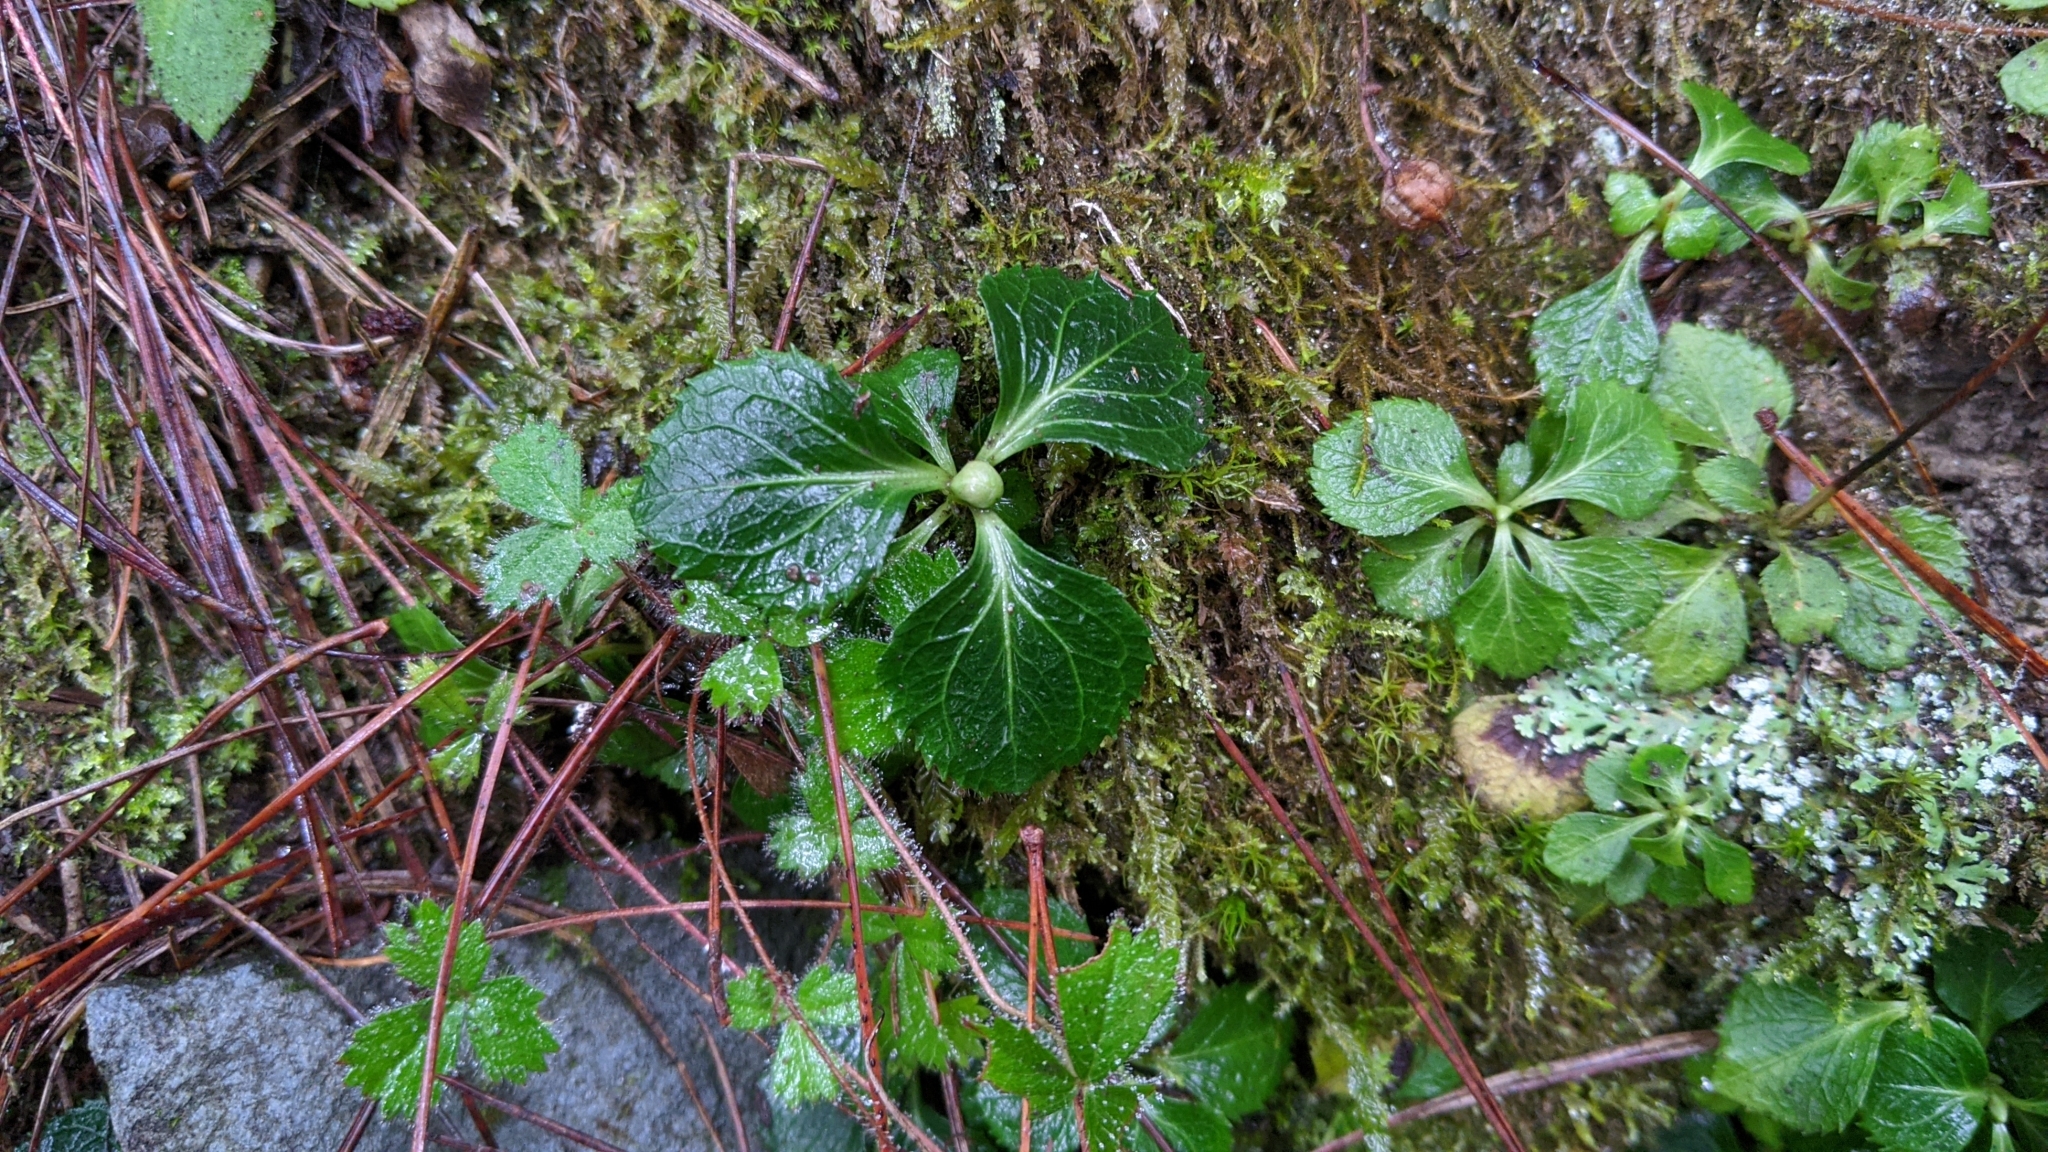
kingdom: Plantae
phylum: Tracheophyta
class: Magnoliopsida
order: Ericales
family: Ericaceae
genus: Moneses
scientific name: Moneses uniflora
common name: One-flowered wintergreen
